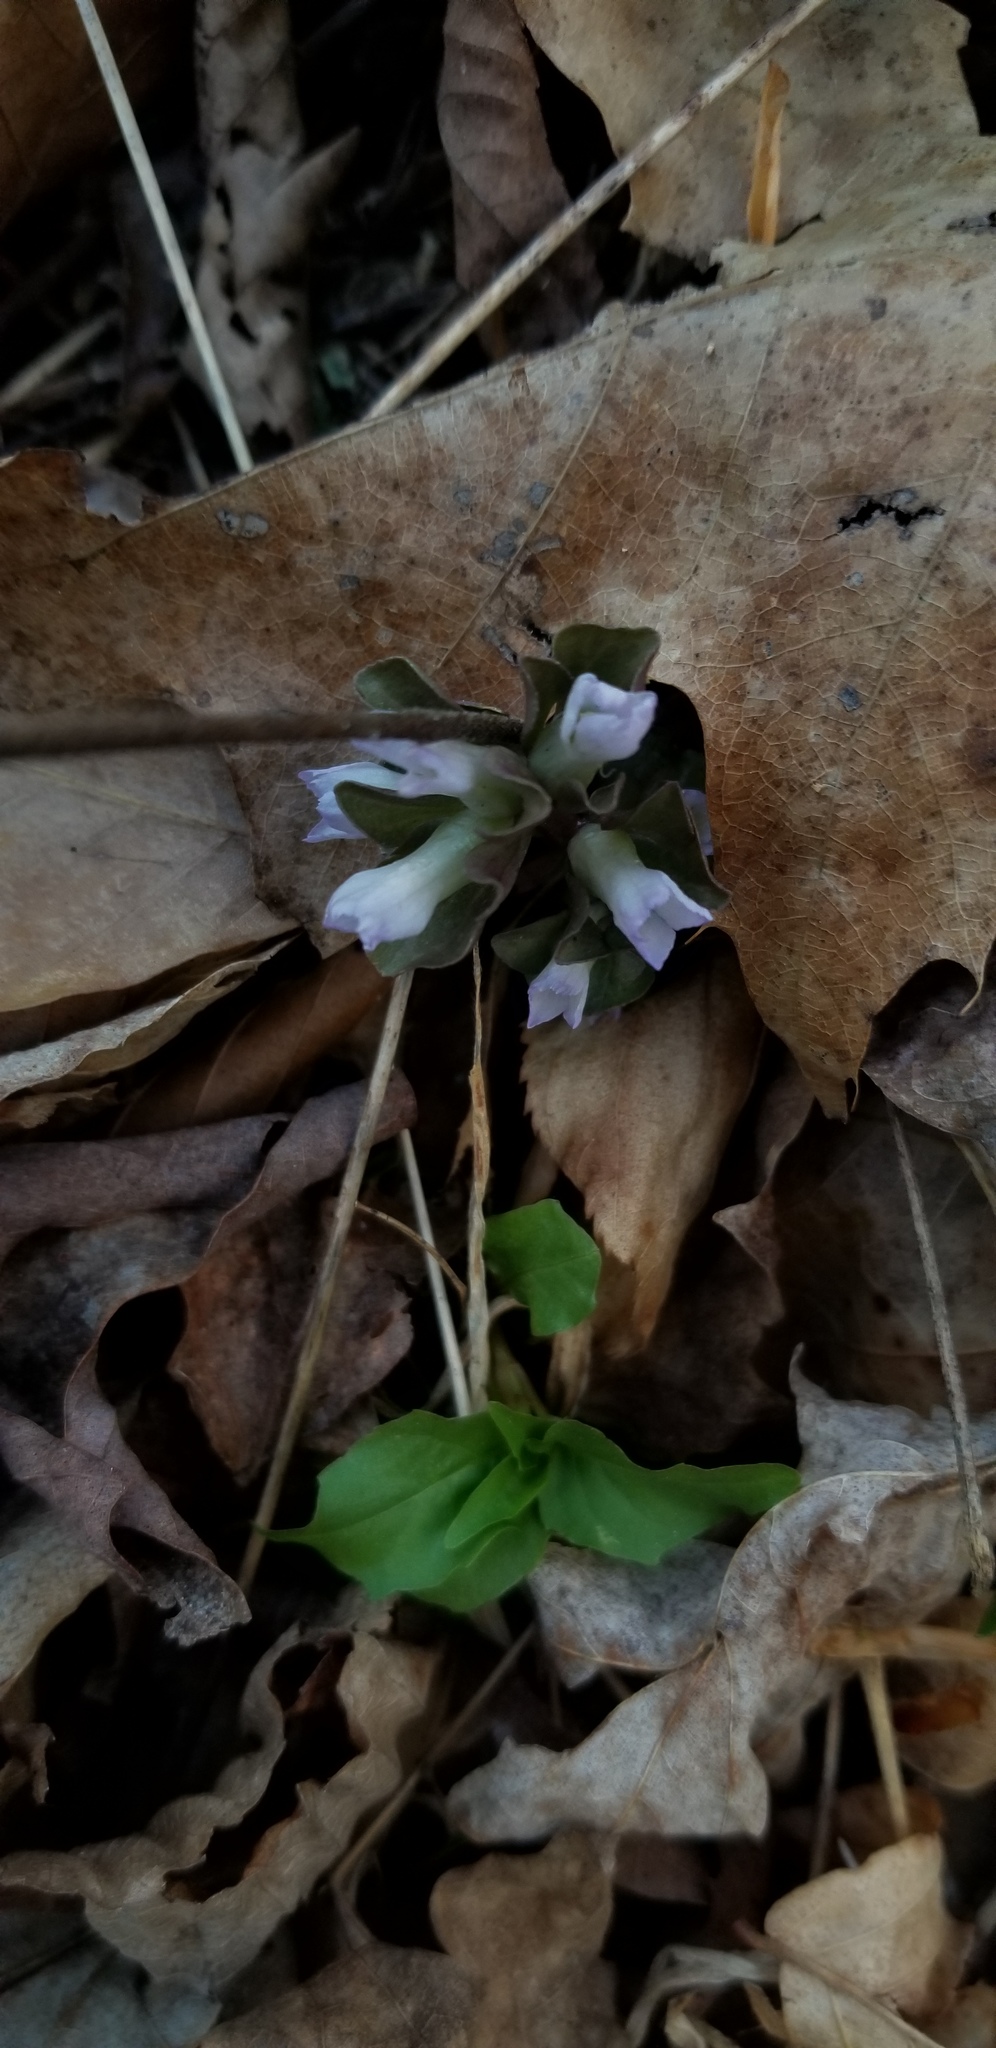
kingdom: Plantae
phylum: Tracheophyta
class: Magnoliopsida
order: Gentianales
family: Gentianaceae
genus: Obolaria
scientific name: Obolaria virginica
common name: Pennywort
